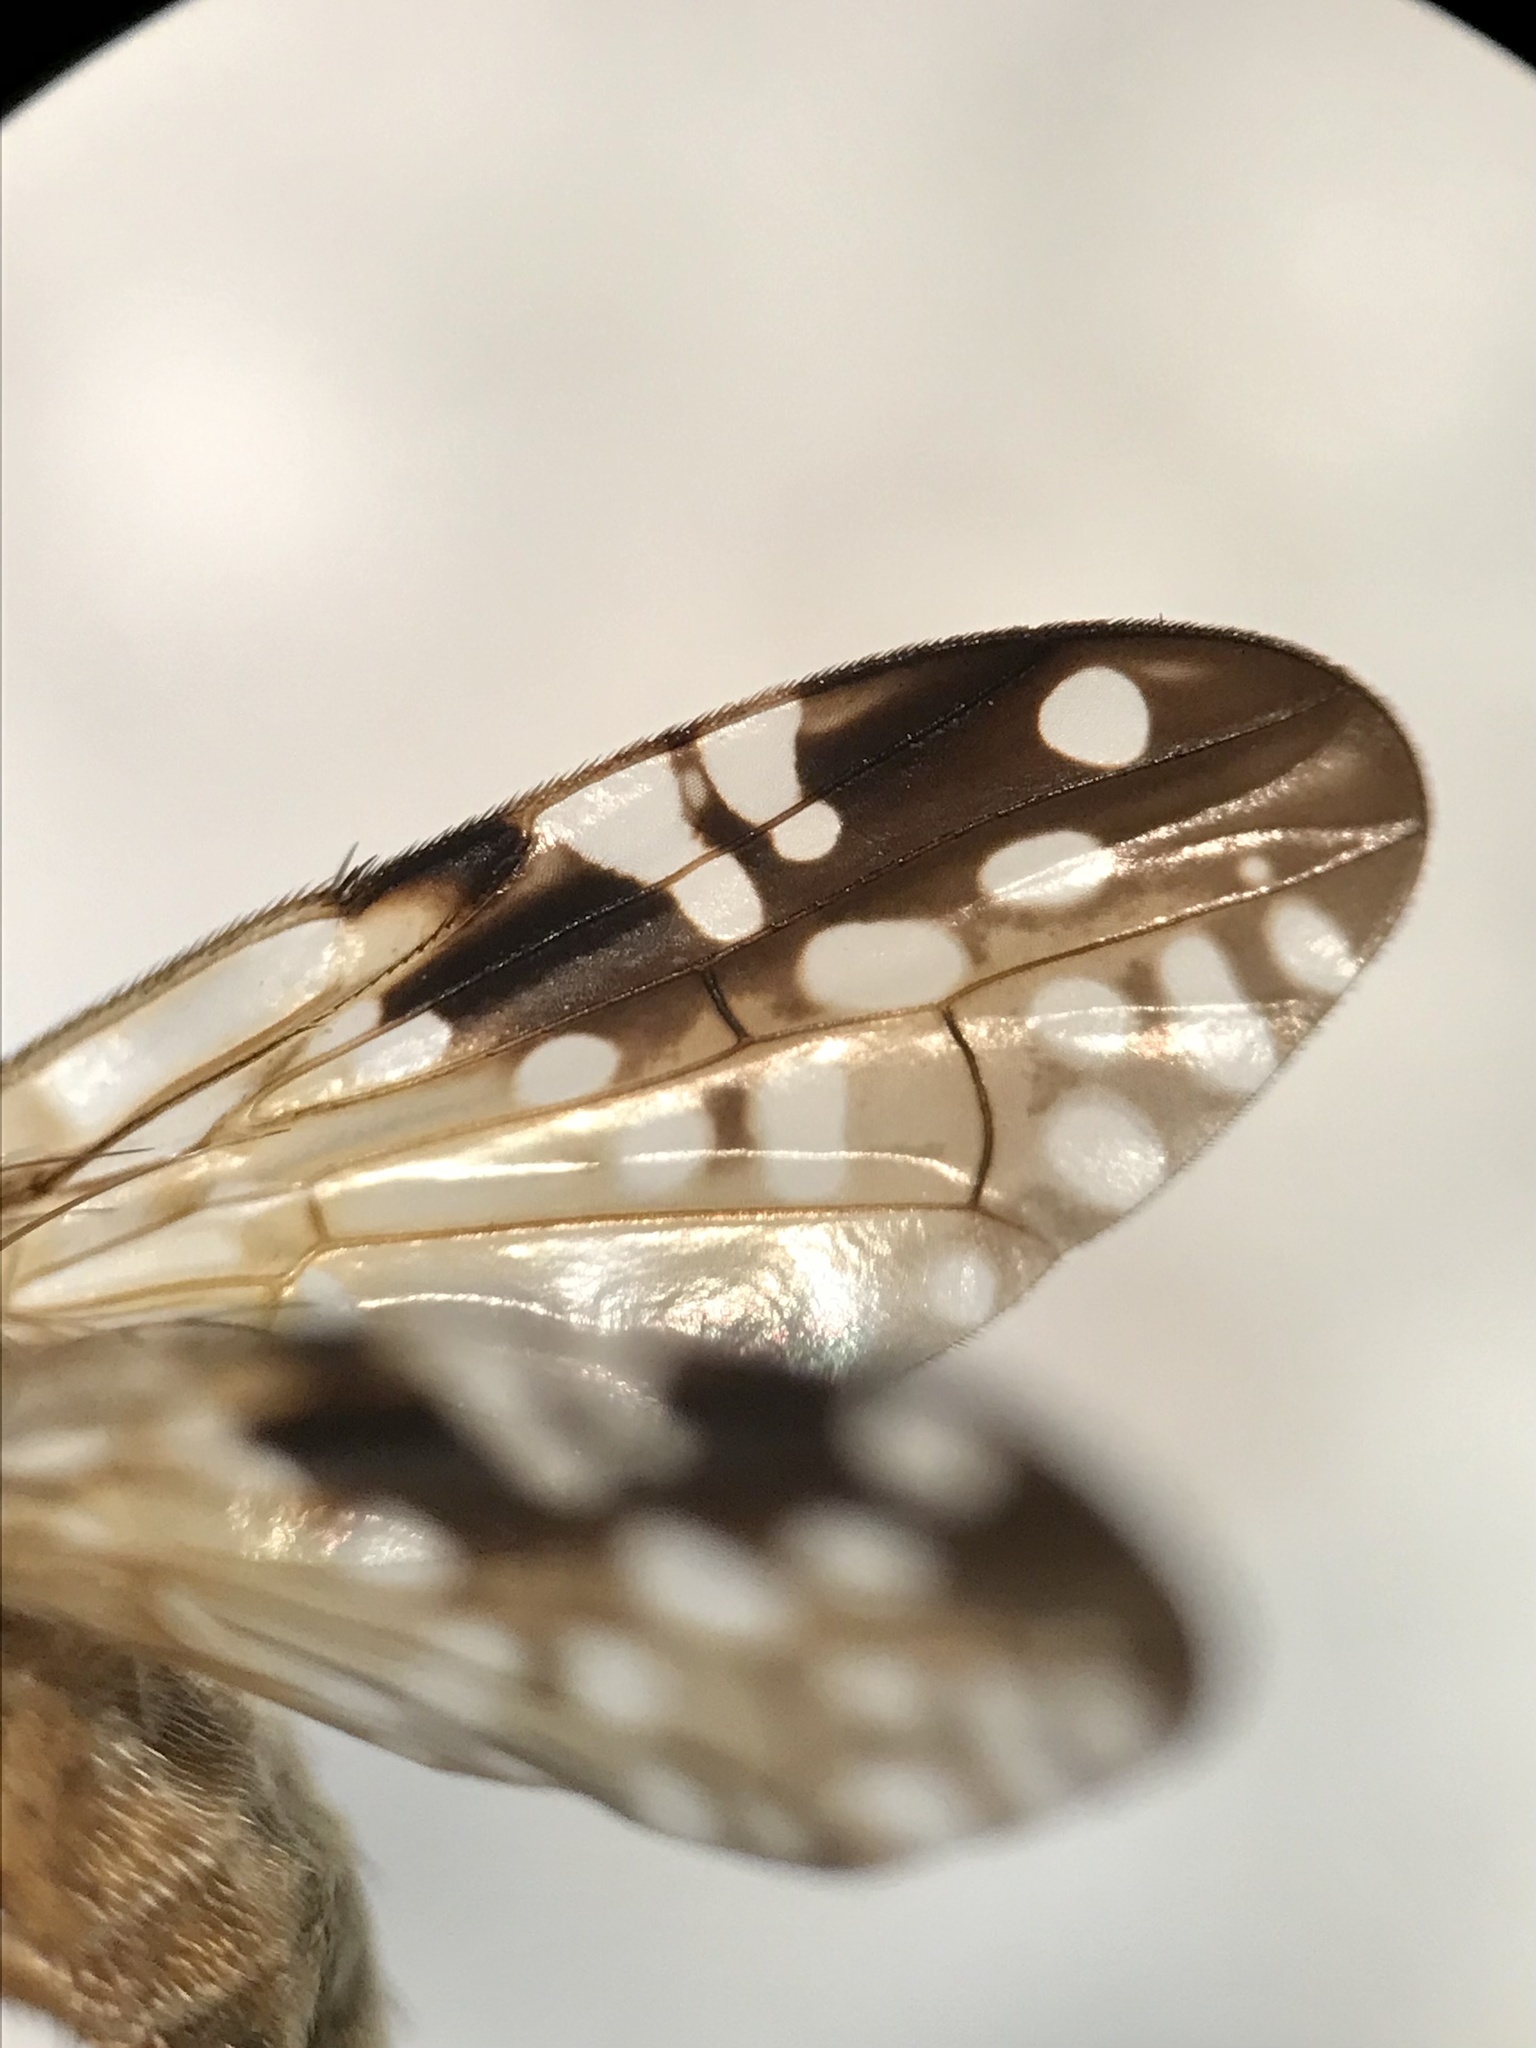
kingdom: Animalia
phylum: Arthropoda
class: Insecta
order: Diptera
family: Tephritidae
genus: Gymnocarena
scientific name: Gymnocarena tricolor
